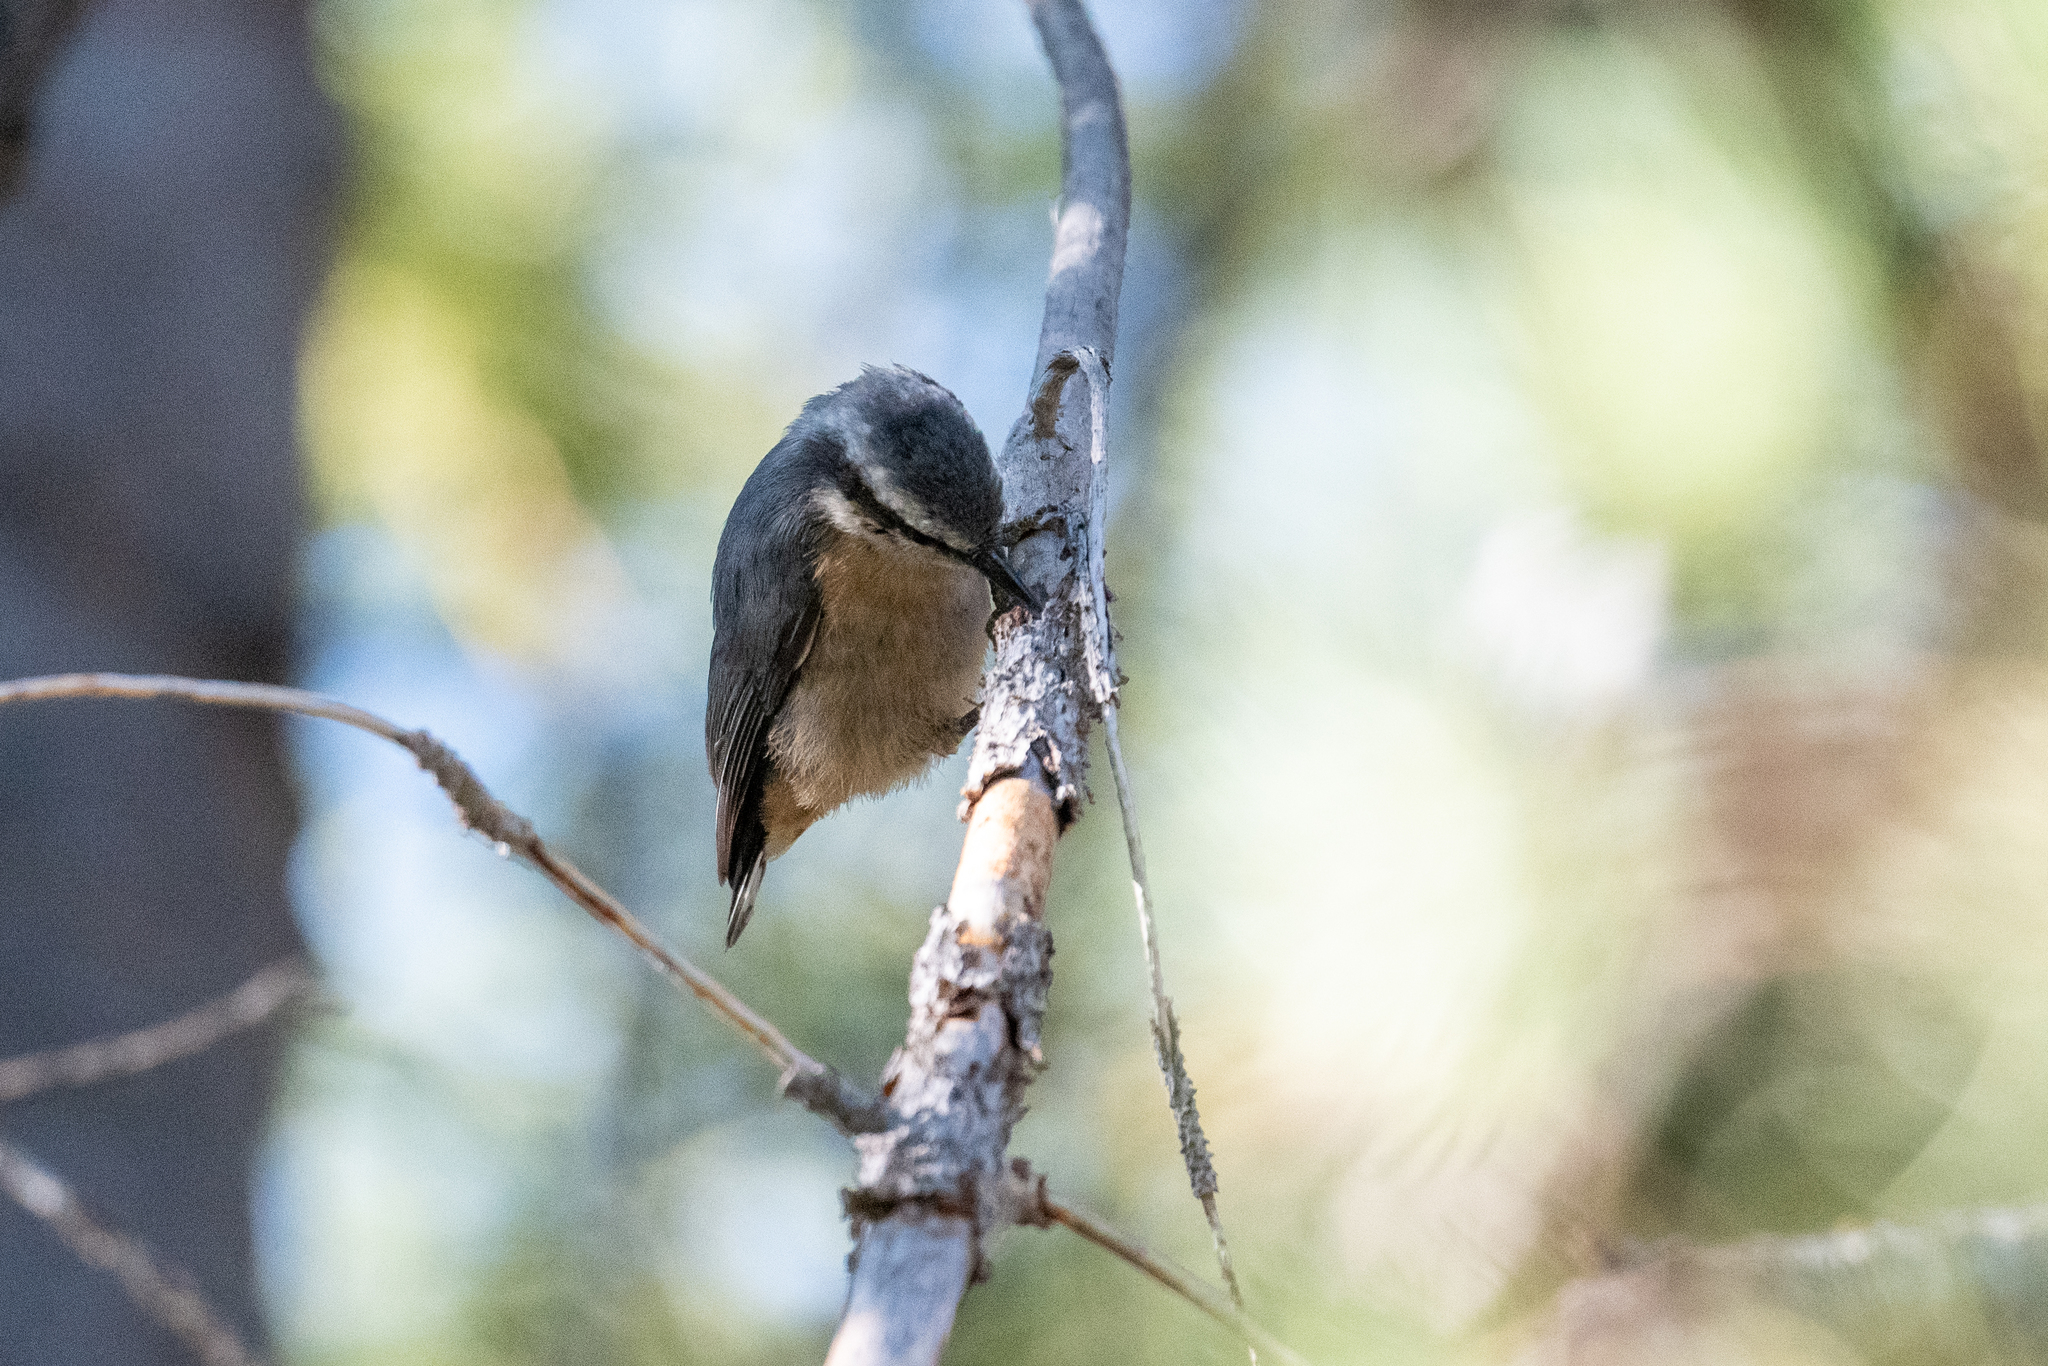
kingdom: Animalia
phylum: Chordata
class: Aves
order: Passeriformes
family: Sittidae
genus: Sitta
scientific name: Sitta canadensis
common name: Red-breasted nuthatch
